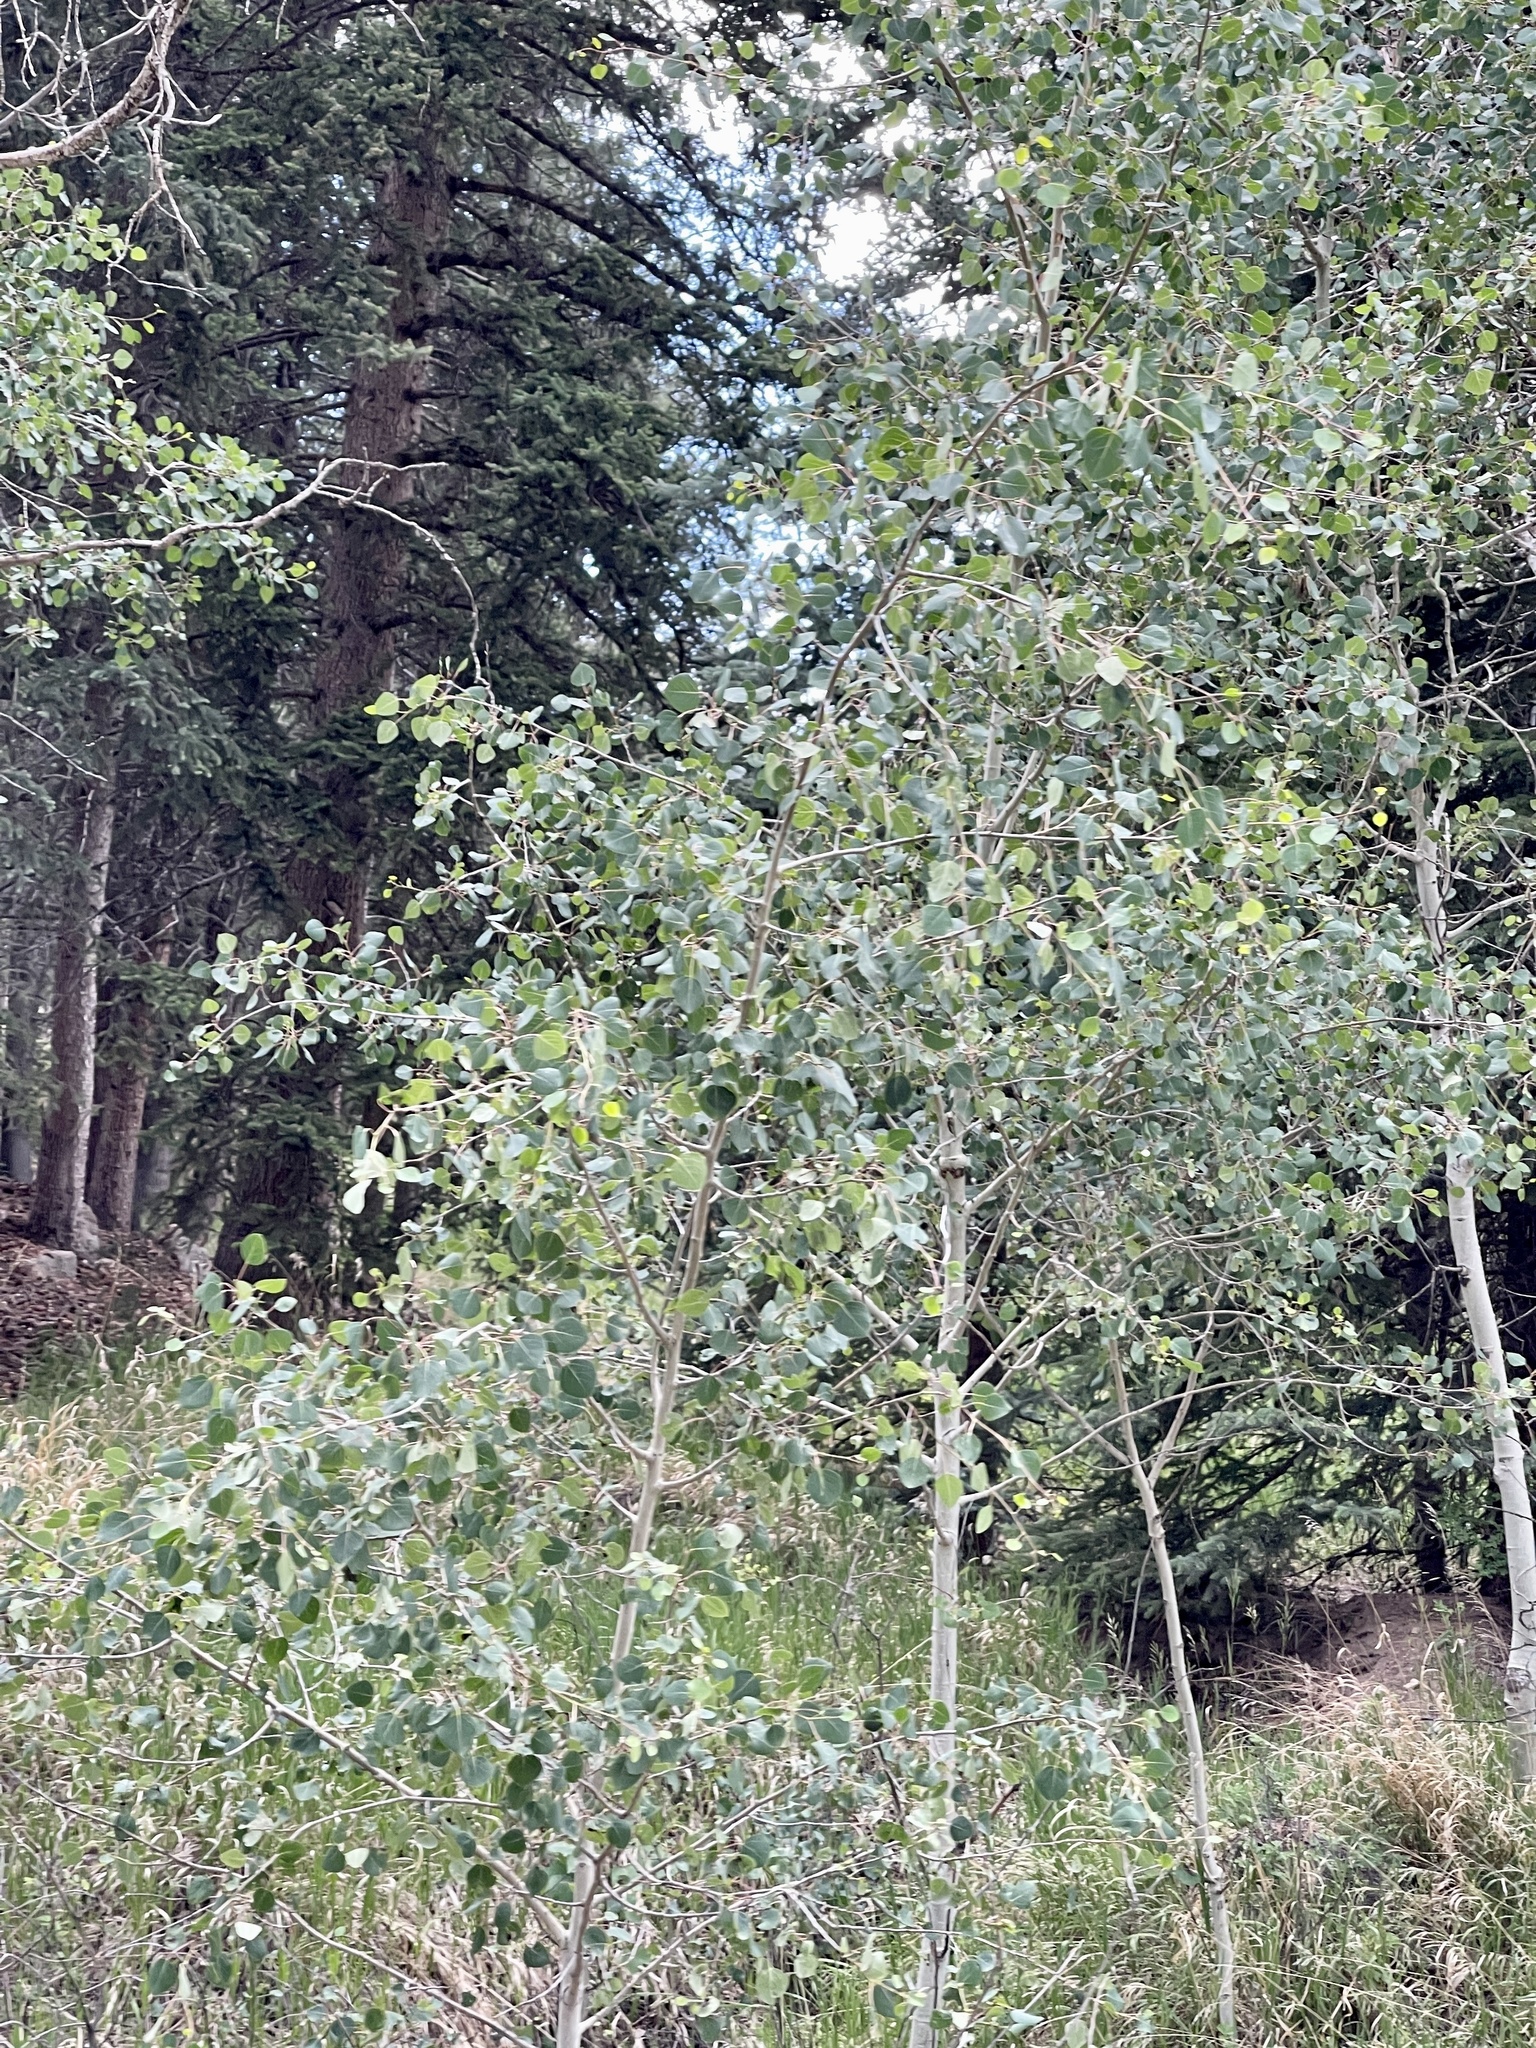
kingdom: Plantae
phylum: Tracheophyta
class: Magnoliopsida
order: Malpighiales
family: Salicaceae
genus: Populus
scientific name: Populus tremuloides
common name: Quaking aspen
